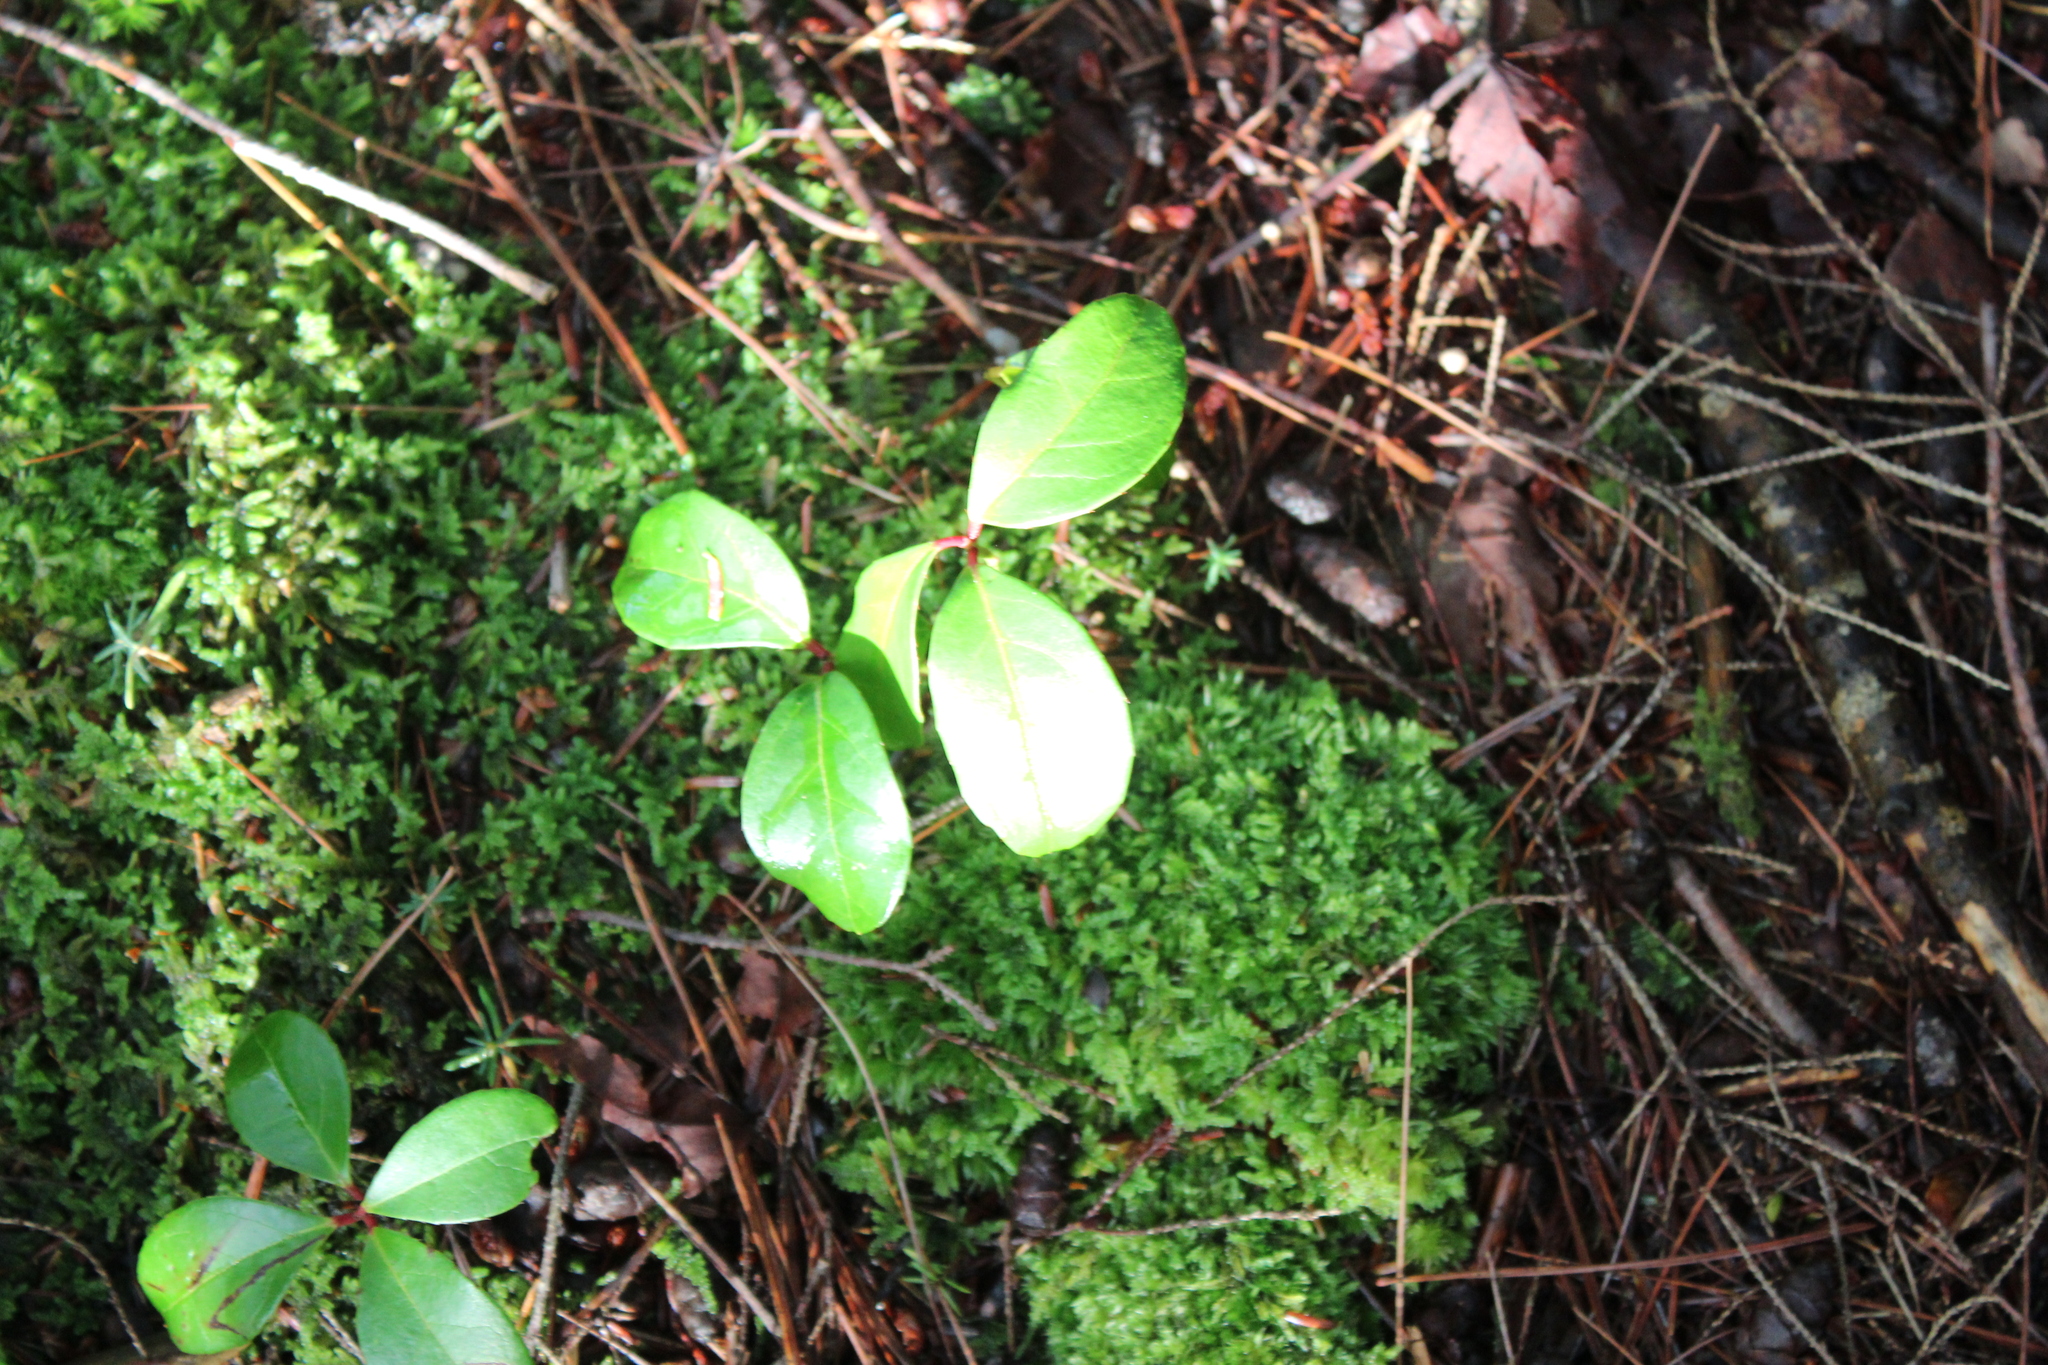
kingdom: Plantae
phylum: Tracheophyta
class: Magnoliopsida
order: Ericales
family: Ericaceae
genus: Gaultheria
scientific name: Gaultheria procumbens
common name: Checkerberry
